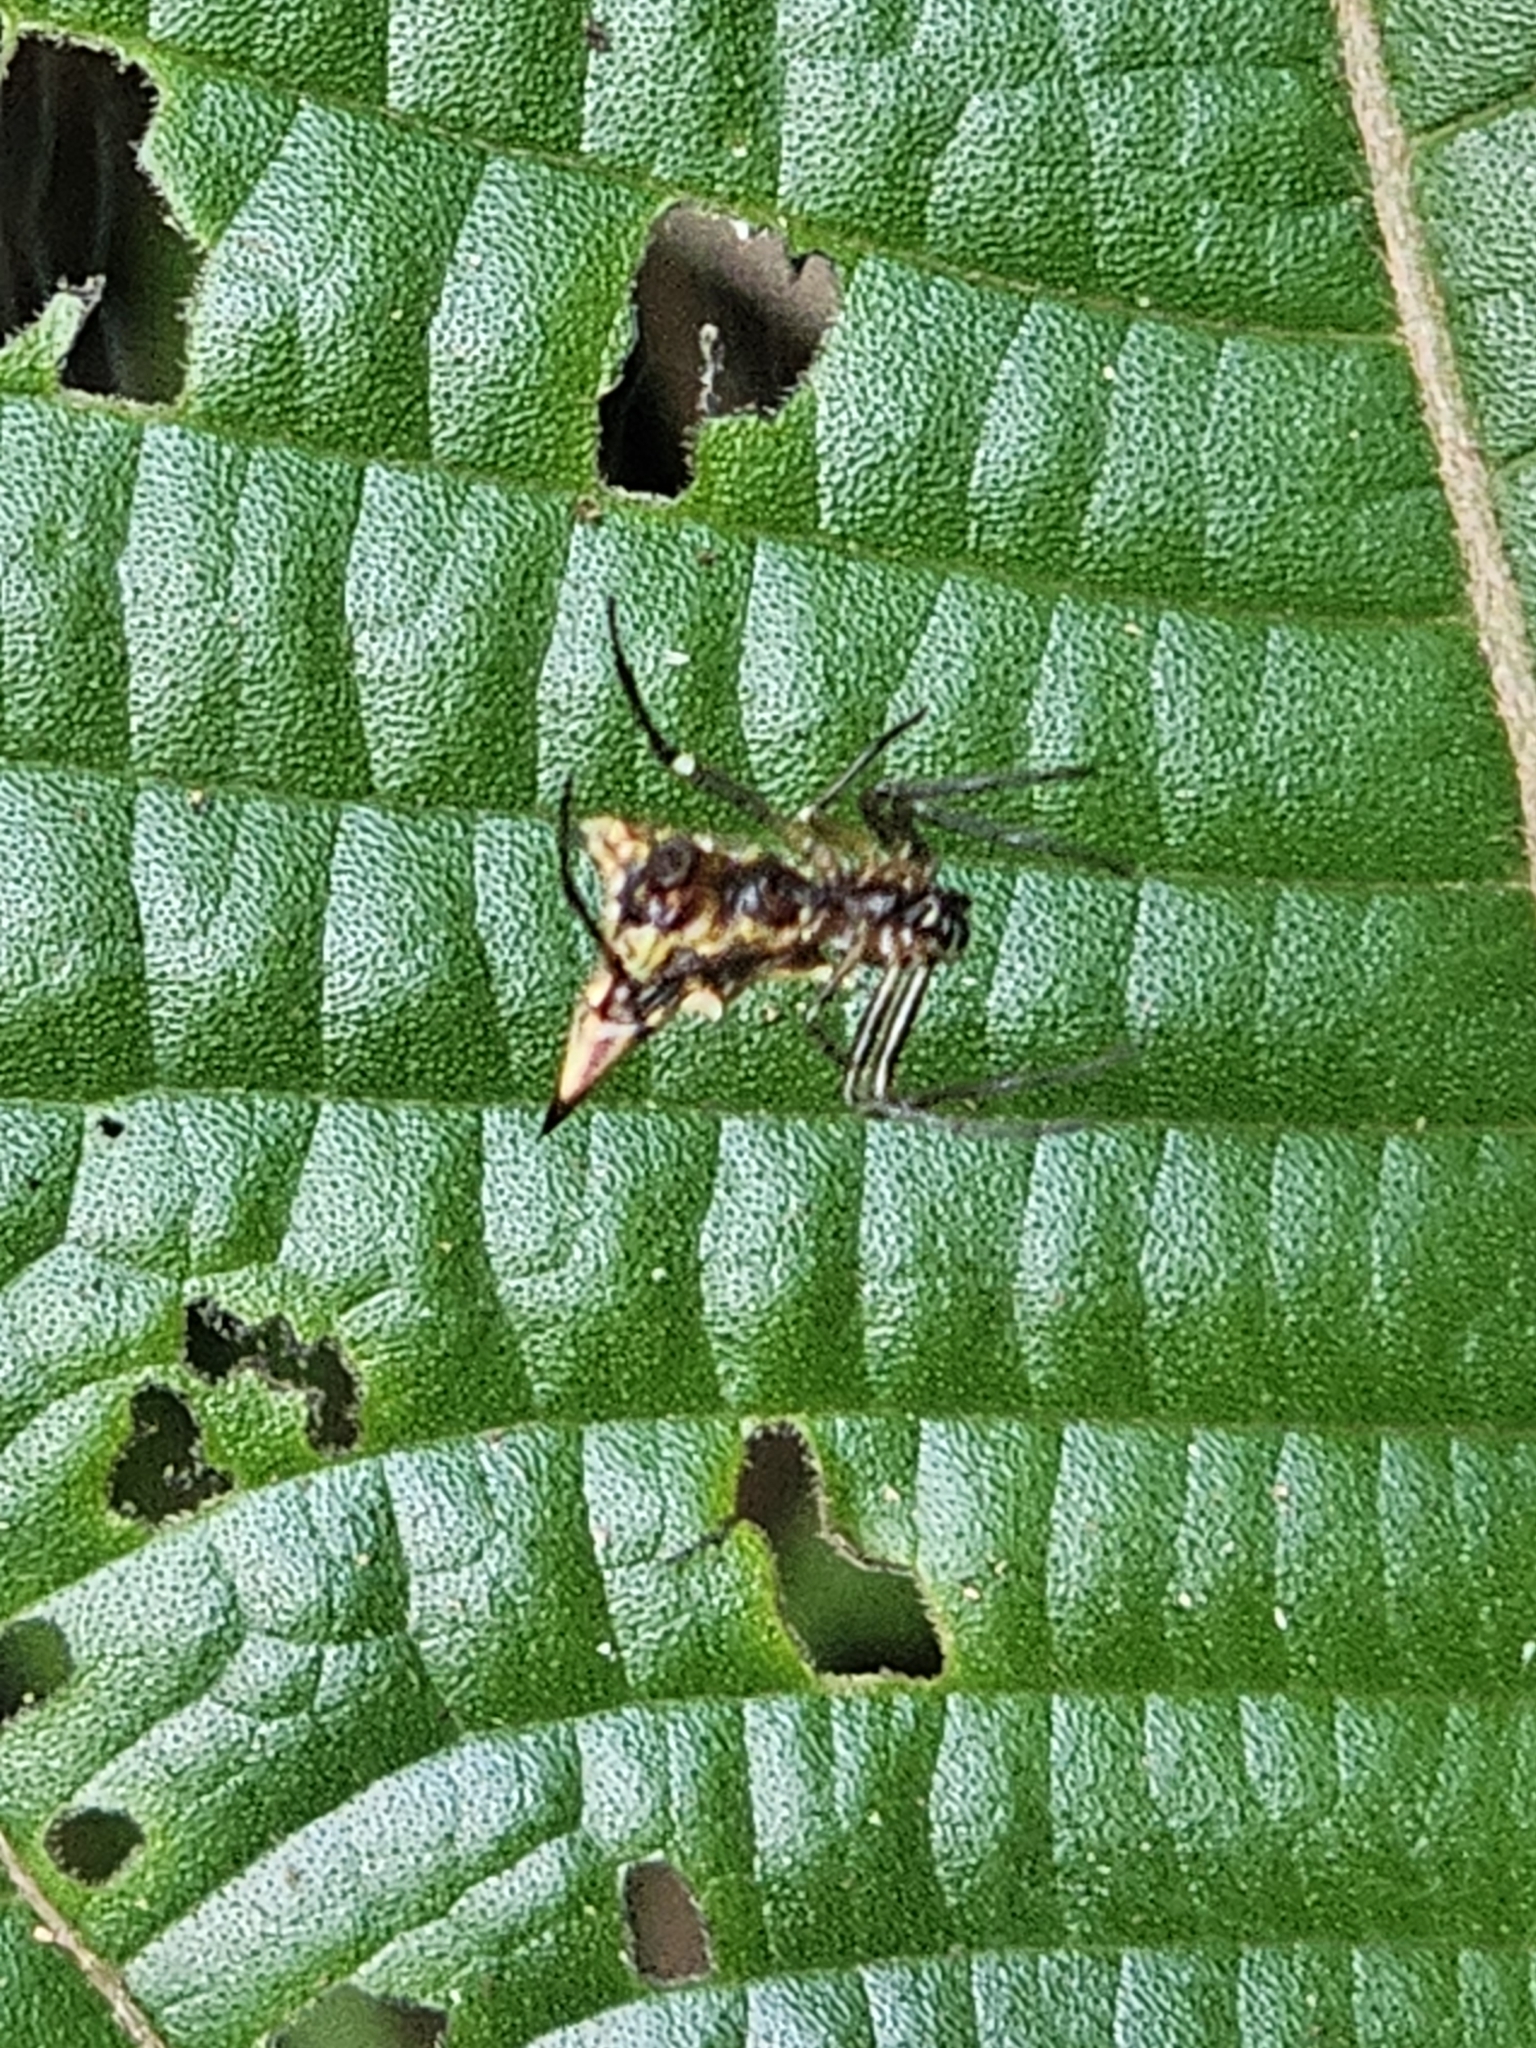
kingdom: Animalia
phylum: Arthropoda
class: Arachnida
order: Araneae
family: Araneidae
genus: Micrathena
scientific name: Micrathena acuta
